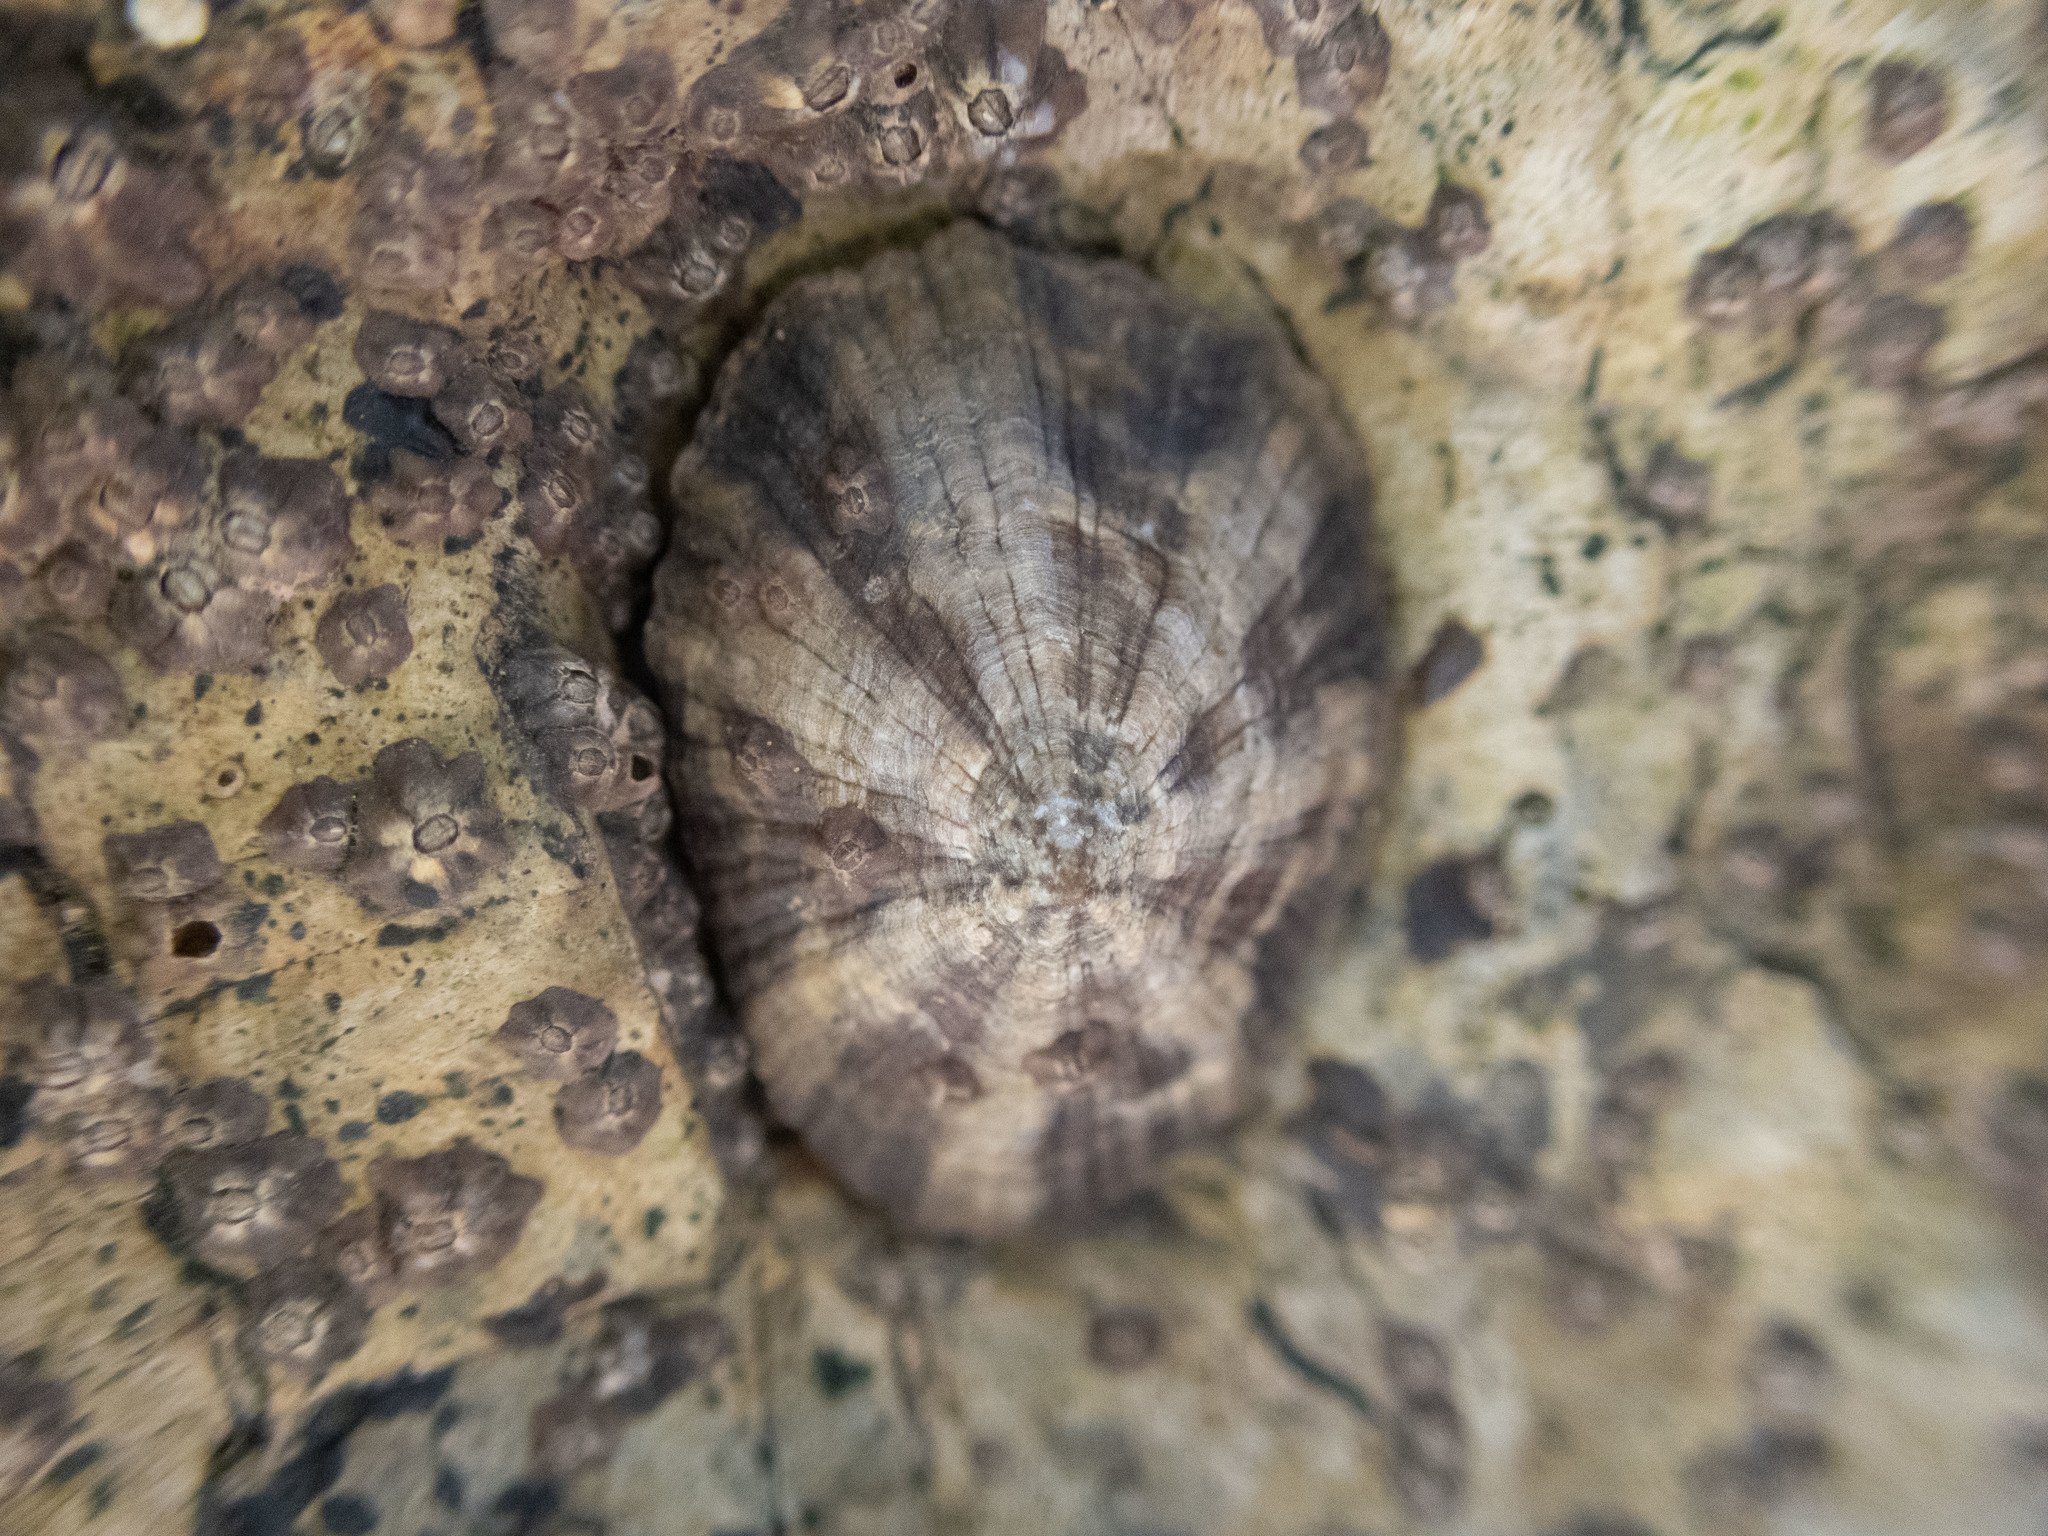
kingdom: Animalia
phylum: Mollusca
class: Gastropoda
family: Lottiidae
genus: Scurria
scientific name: Scurria stipulata
